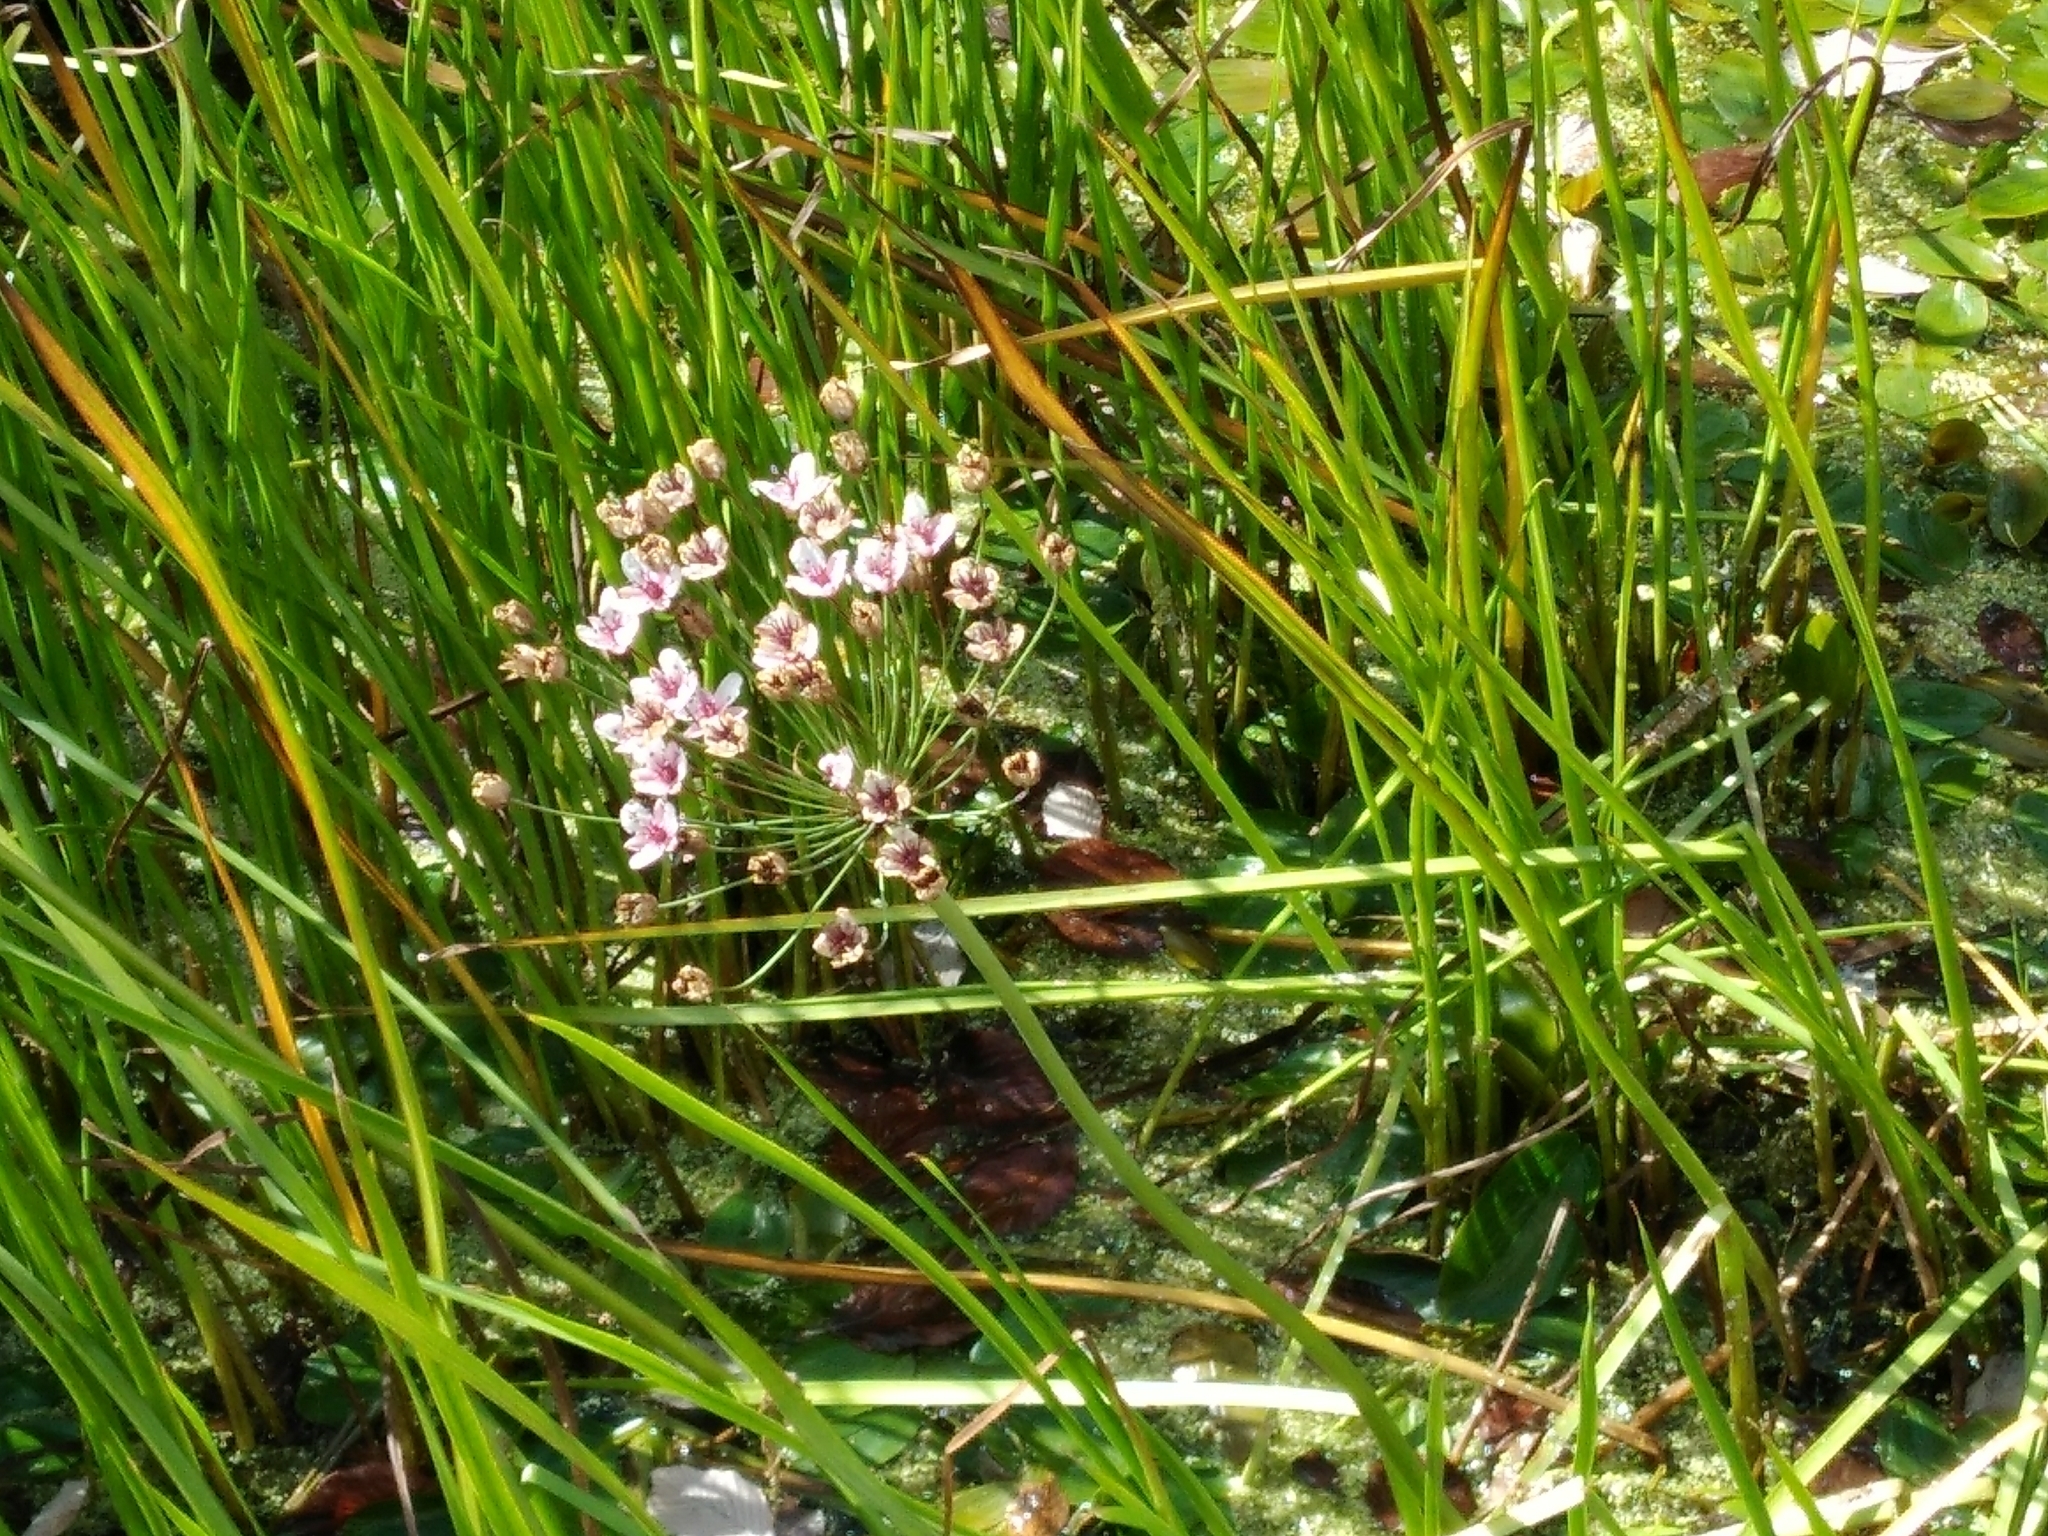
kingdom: Plantae
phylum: Tracheophyta
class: Liliopsida
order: Alismatales
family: Butomaceae
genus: Butomus
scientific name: Butomus umbellatus
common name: Flowering-rush
